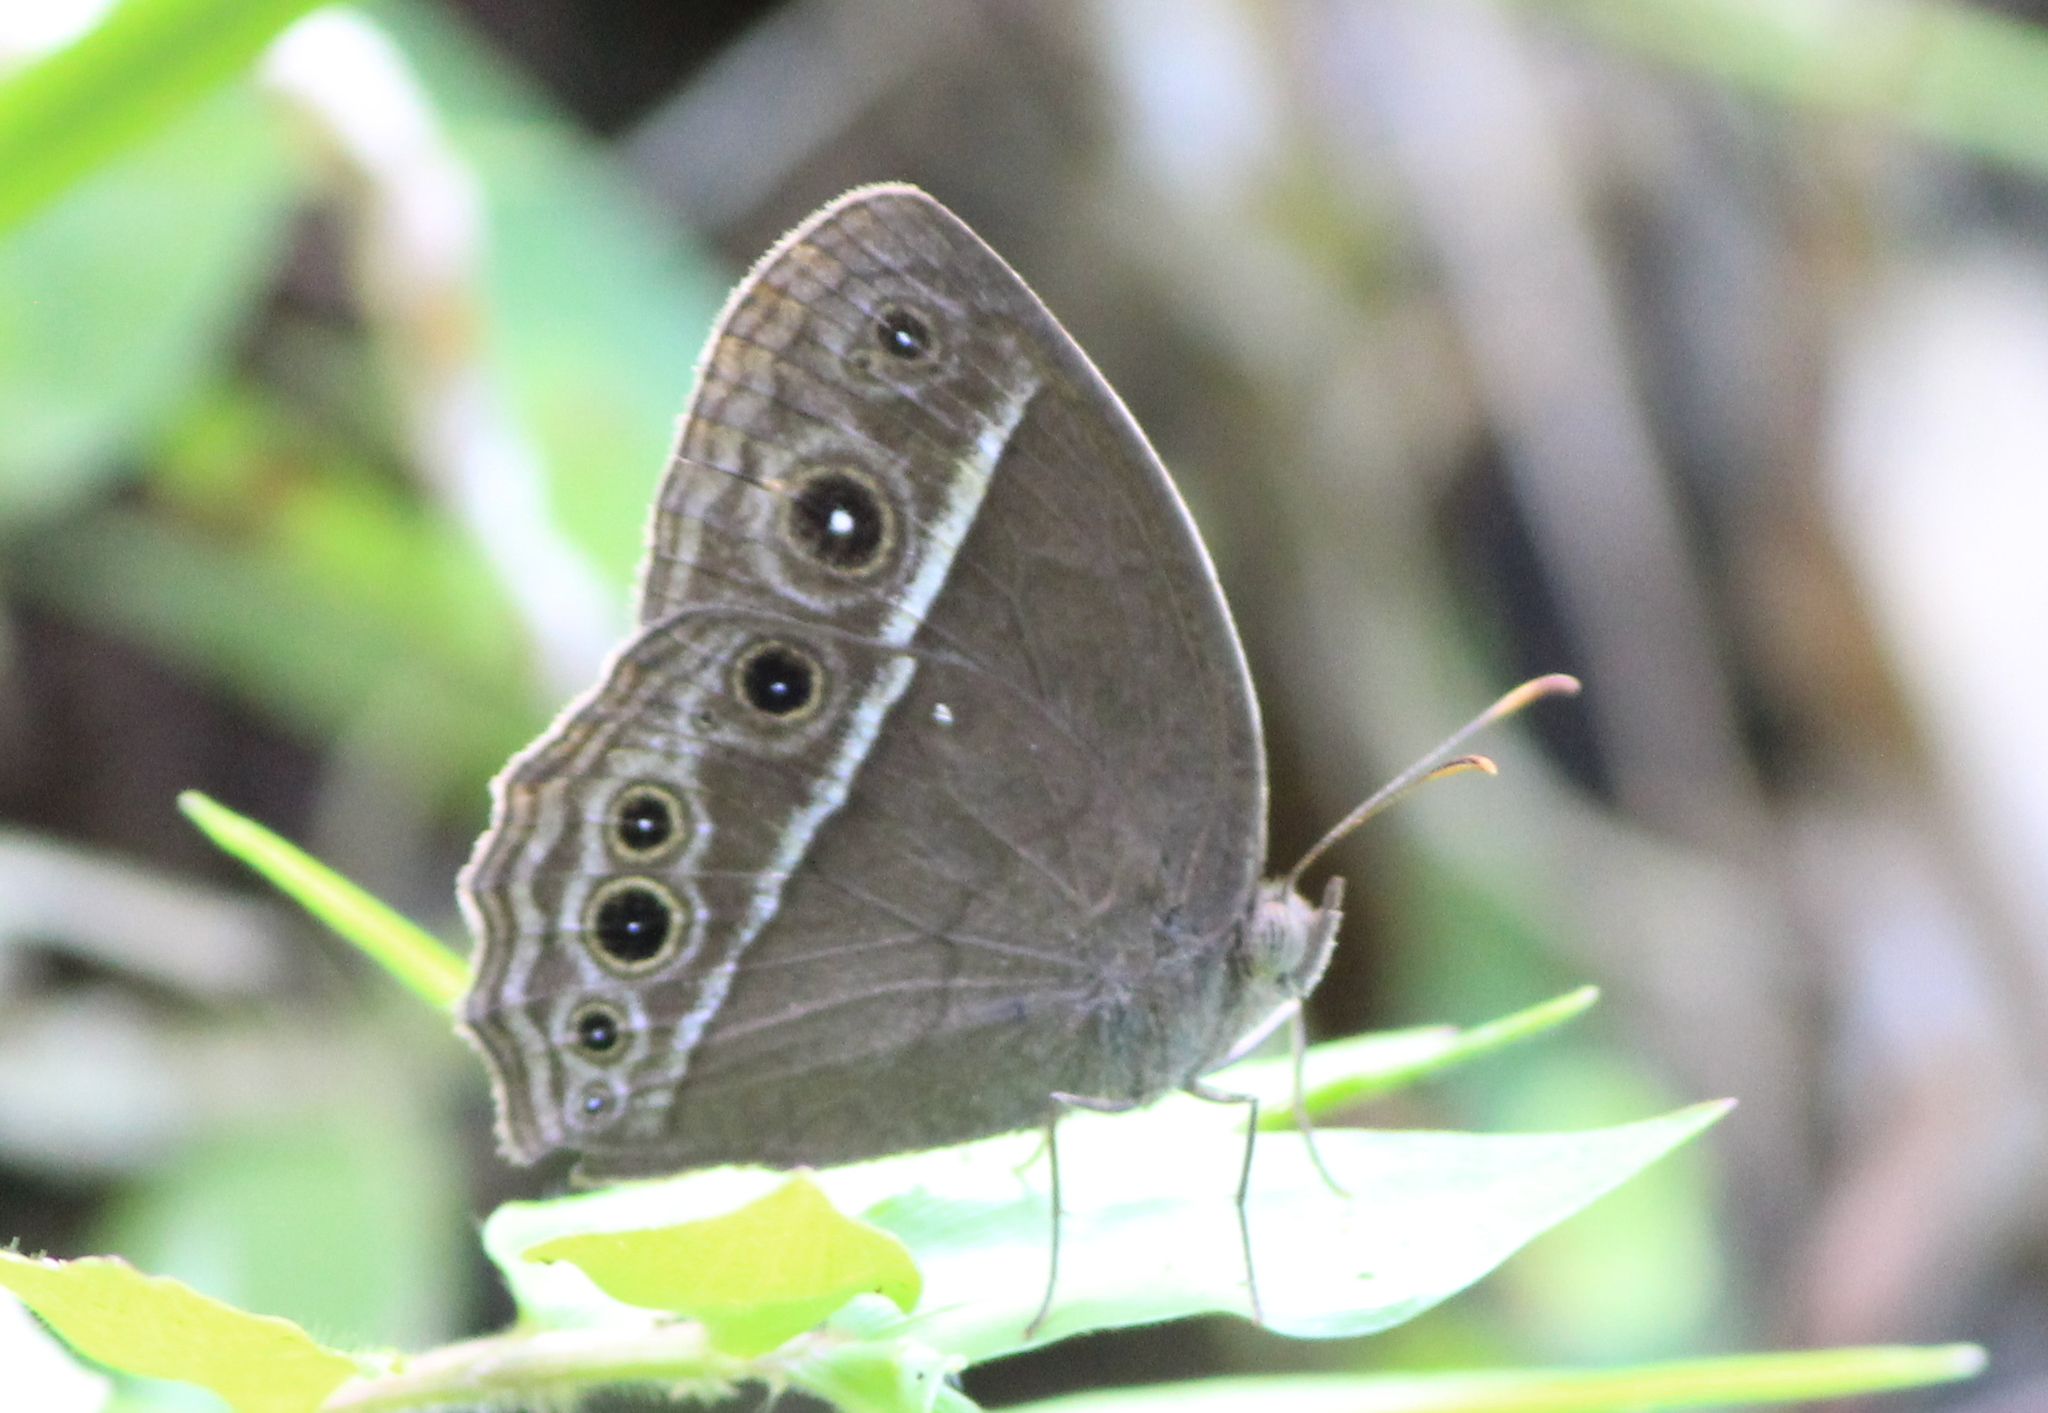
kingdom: Animalia
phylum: Arthropoda
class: Insecta
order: Lepidoptera
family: Nymphalidae
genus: Mycalesis
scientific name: Mycalesis mineus
